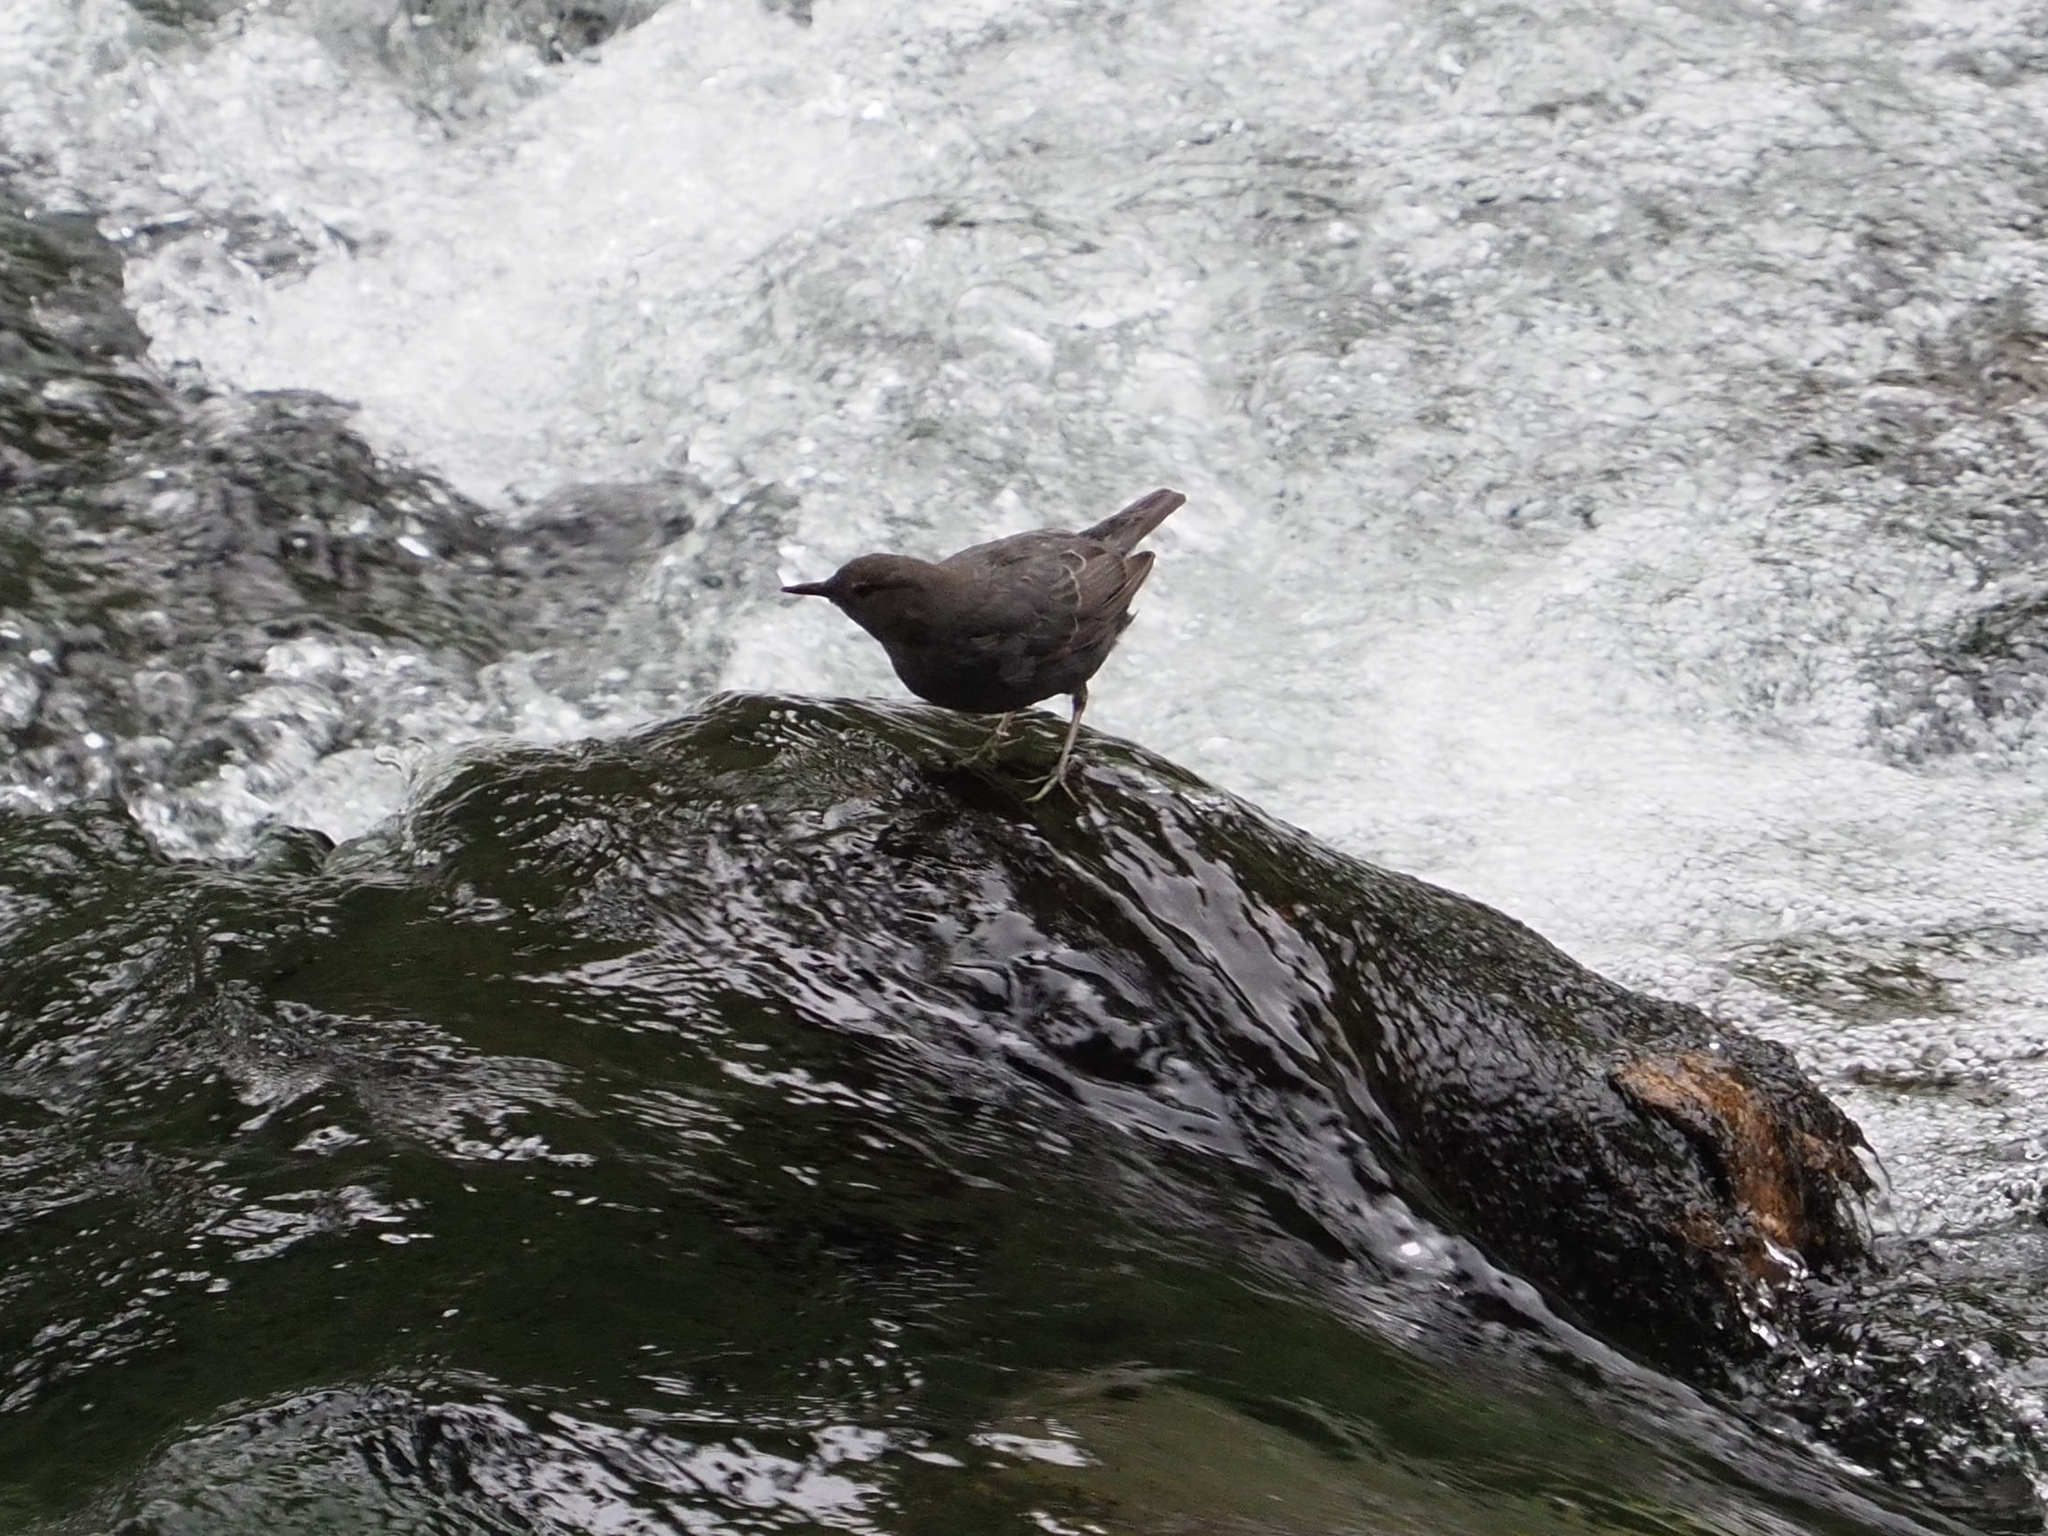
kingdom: Animalia
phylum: Chordata
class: Aves
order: Passeriformes
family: Cinclidae
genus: Cinclus
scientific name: Cinclus mexicanus
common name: American dipper
